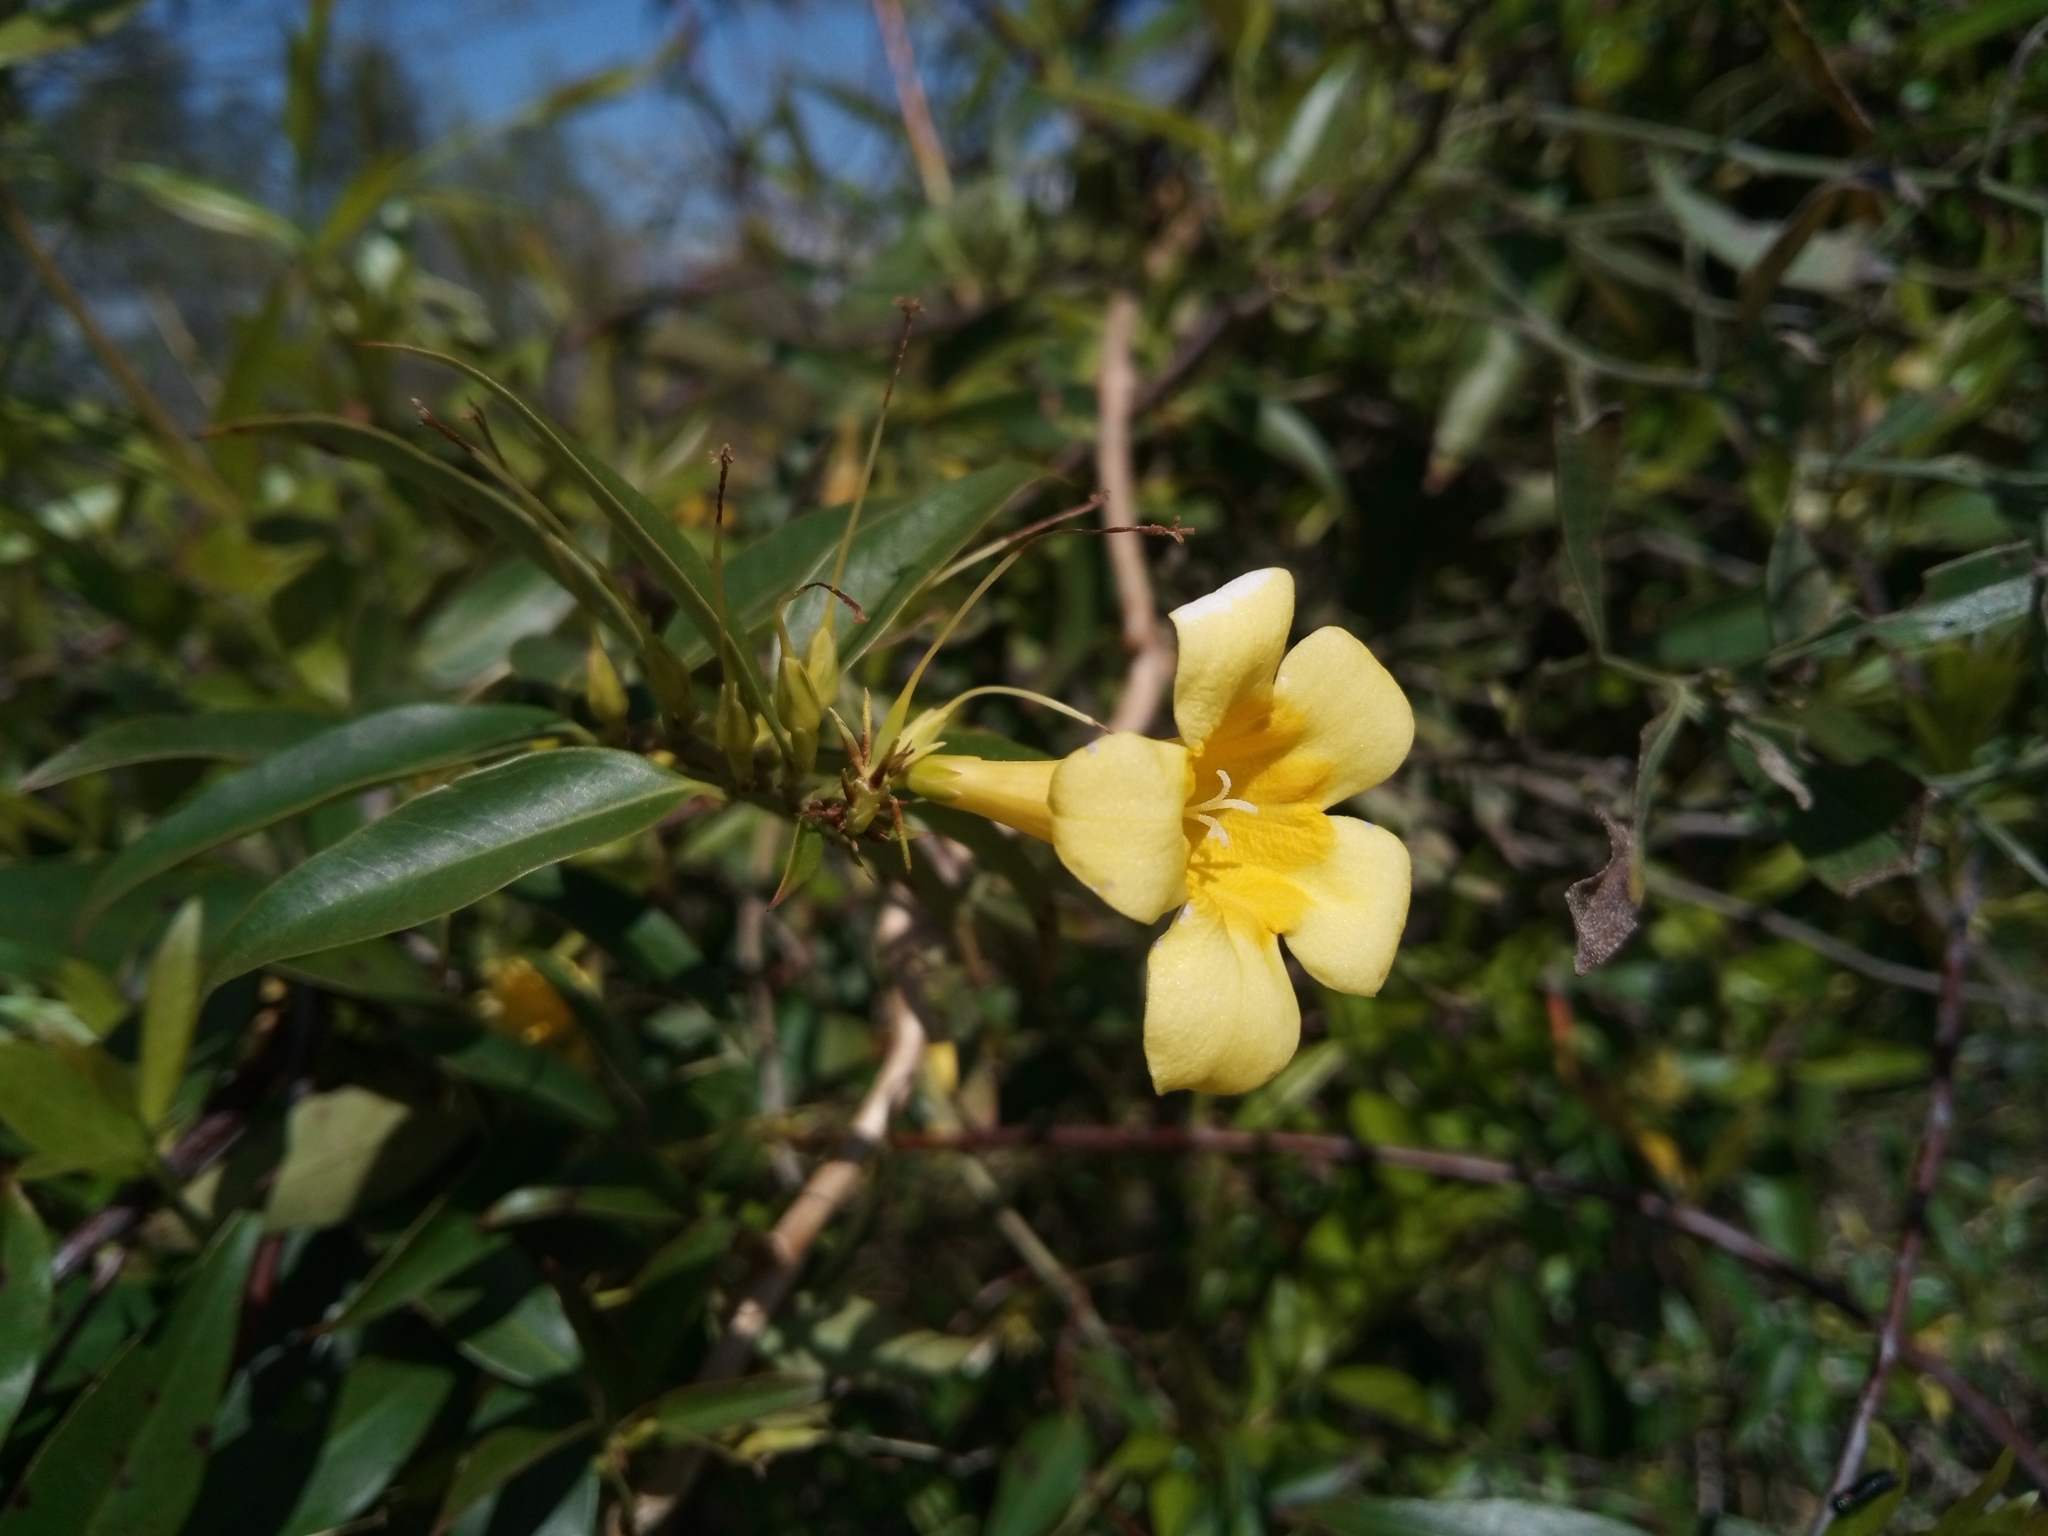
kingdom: Plantae
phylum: Tracheophyta
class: Magnoliopsida
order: Gentianales
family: Gelsemiaceae
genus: Gelsemium
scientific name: Gelsemium sempervirens
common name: Carolina-jasmine
